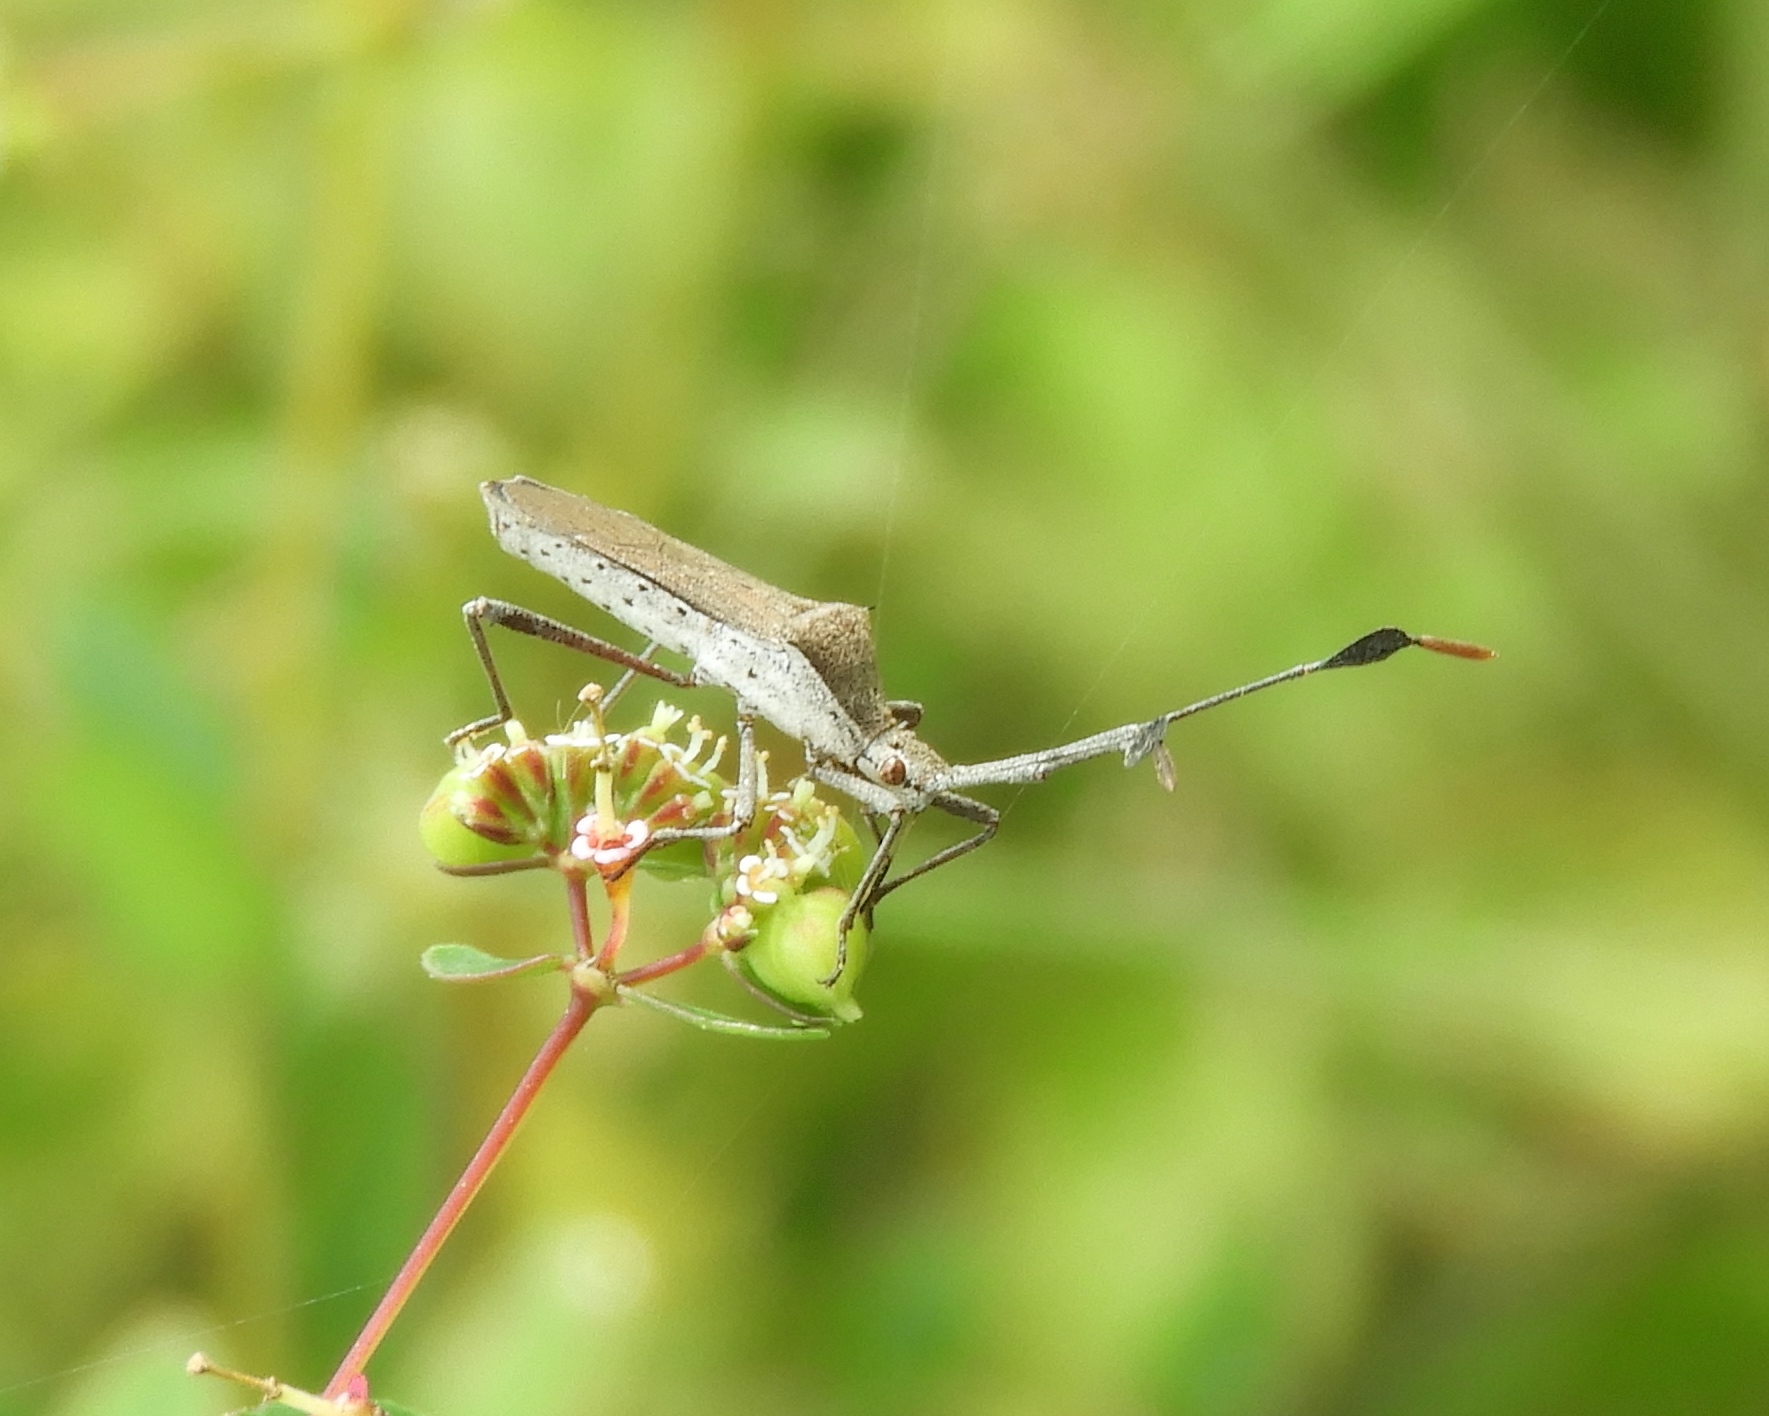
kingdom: Animalia
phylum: Arthropoda
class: Insecta
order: Hemiptera
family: Coreidae
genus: Chariesterus
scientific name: Chariesterus
